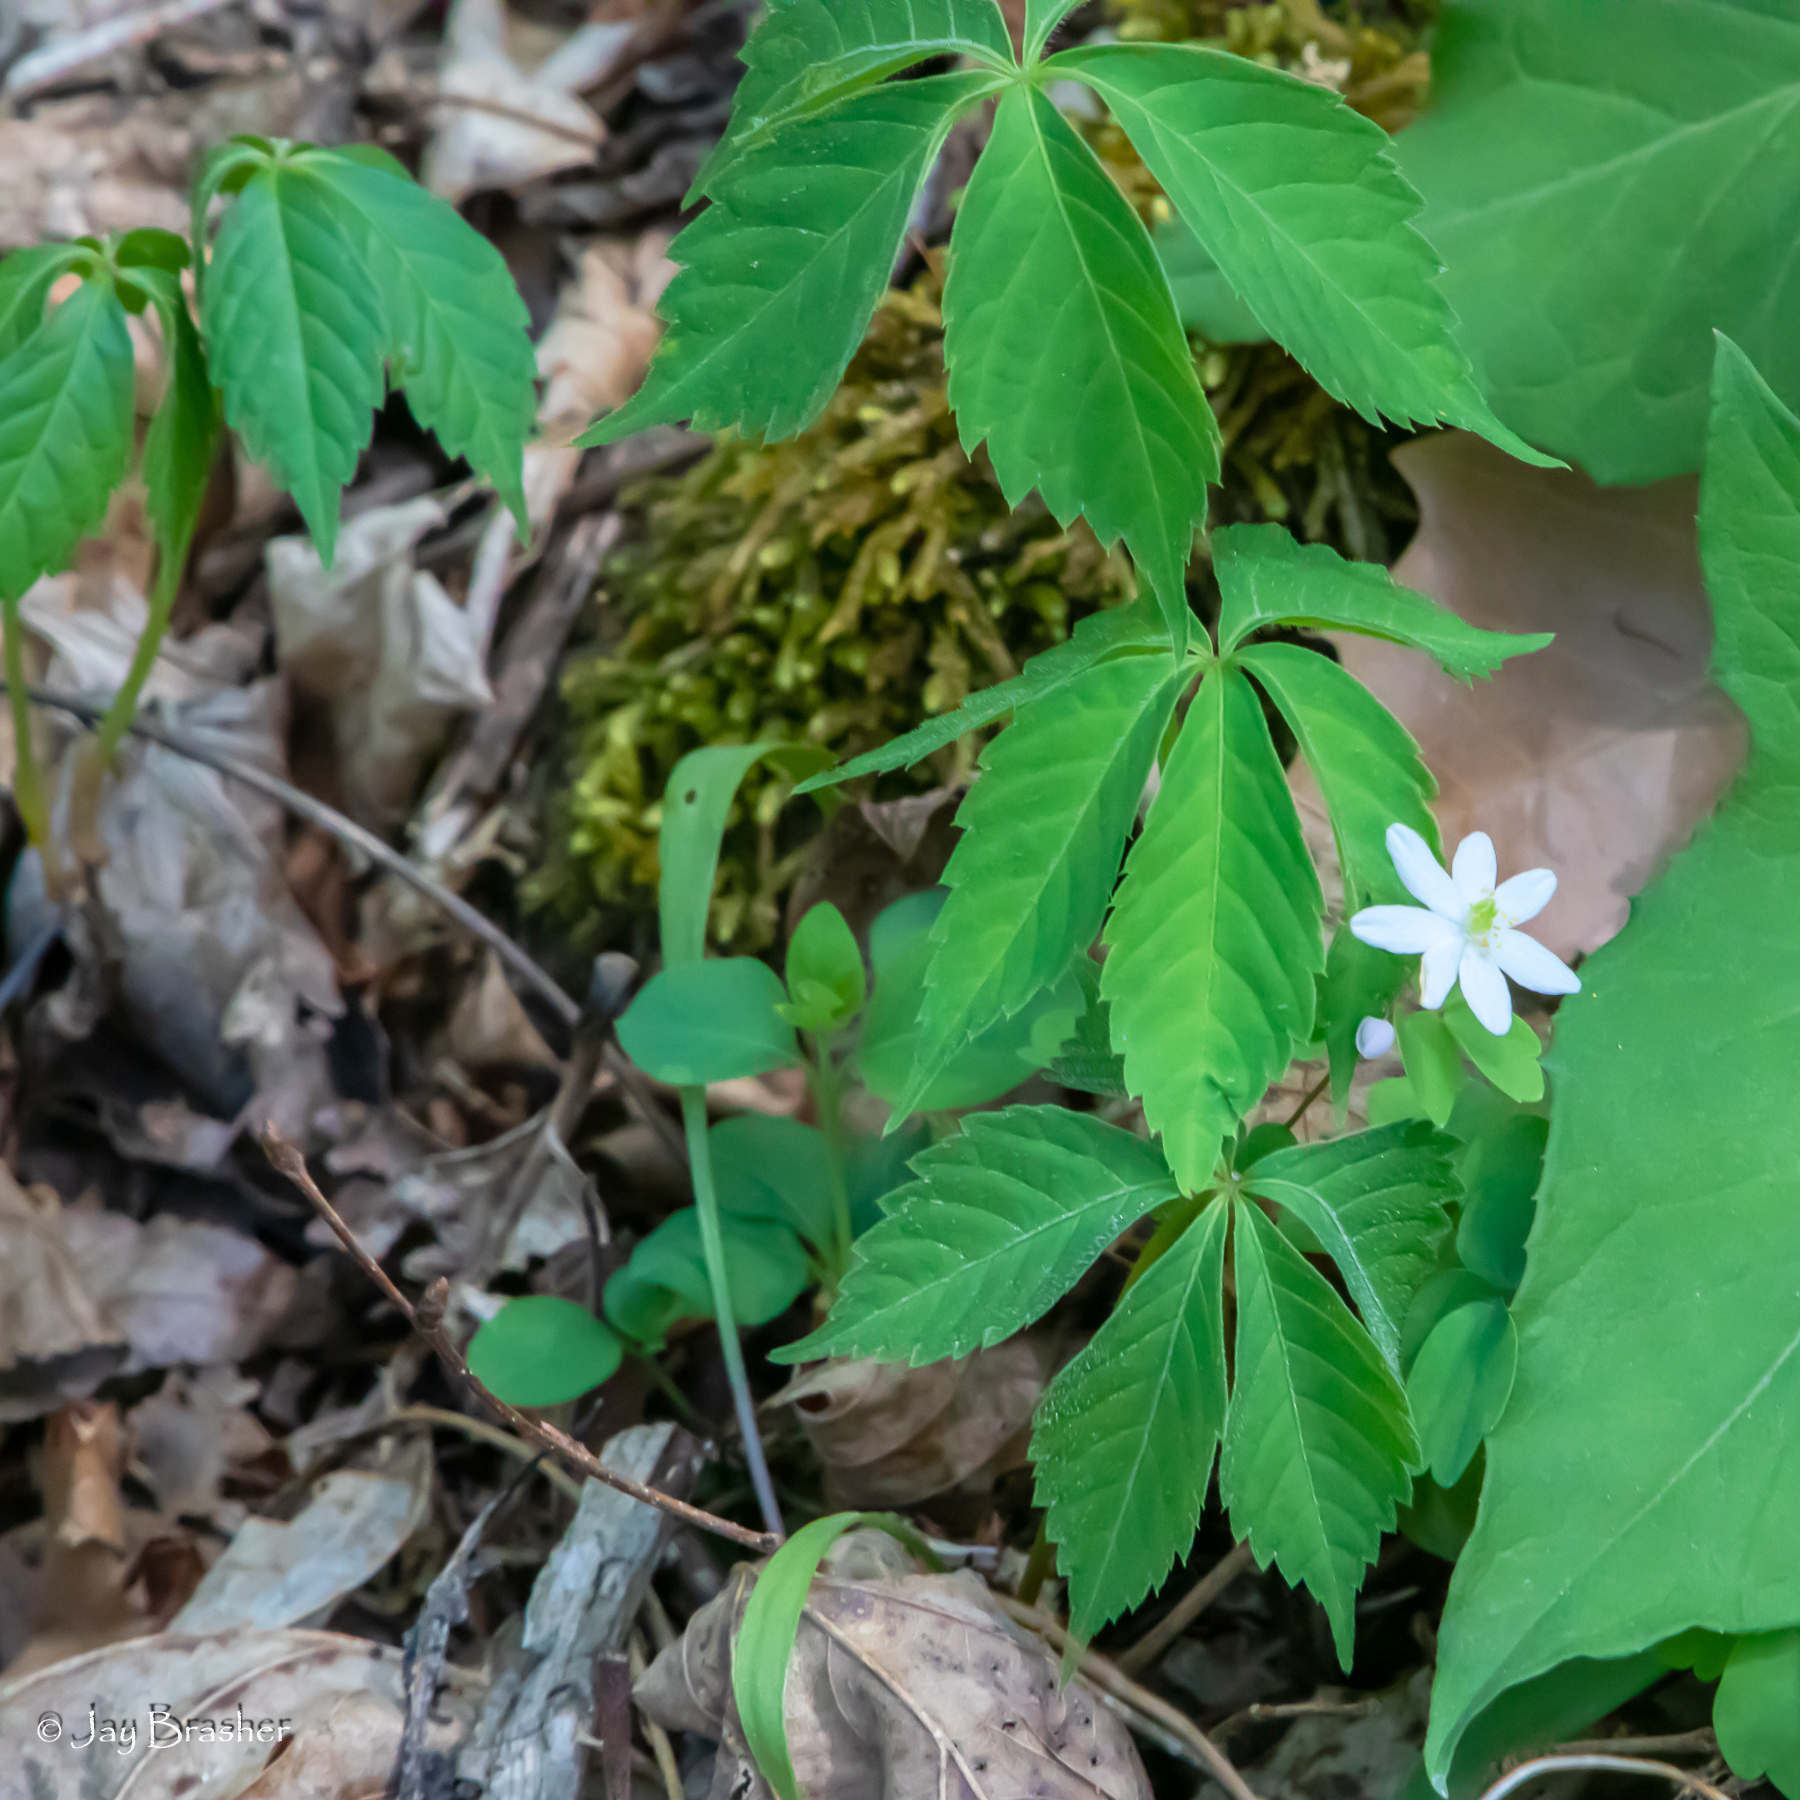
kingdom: Plantae
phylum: Tracheophyta
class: Magnoliopsida
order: Vitales
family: Vitaceae
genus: Parthenocissus
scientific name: Parthenocissus quinquefolia
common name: Virginia-creeper
